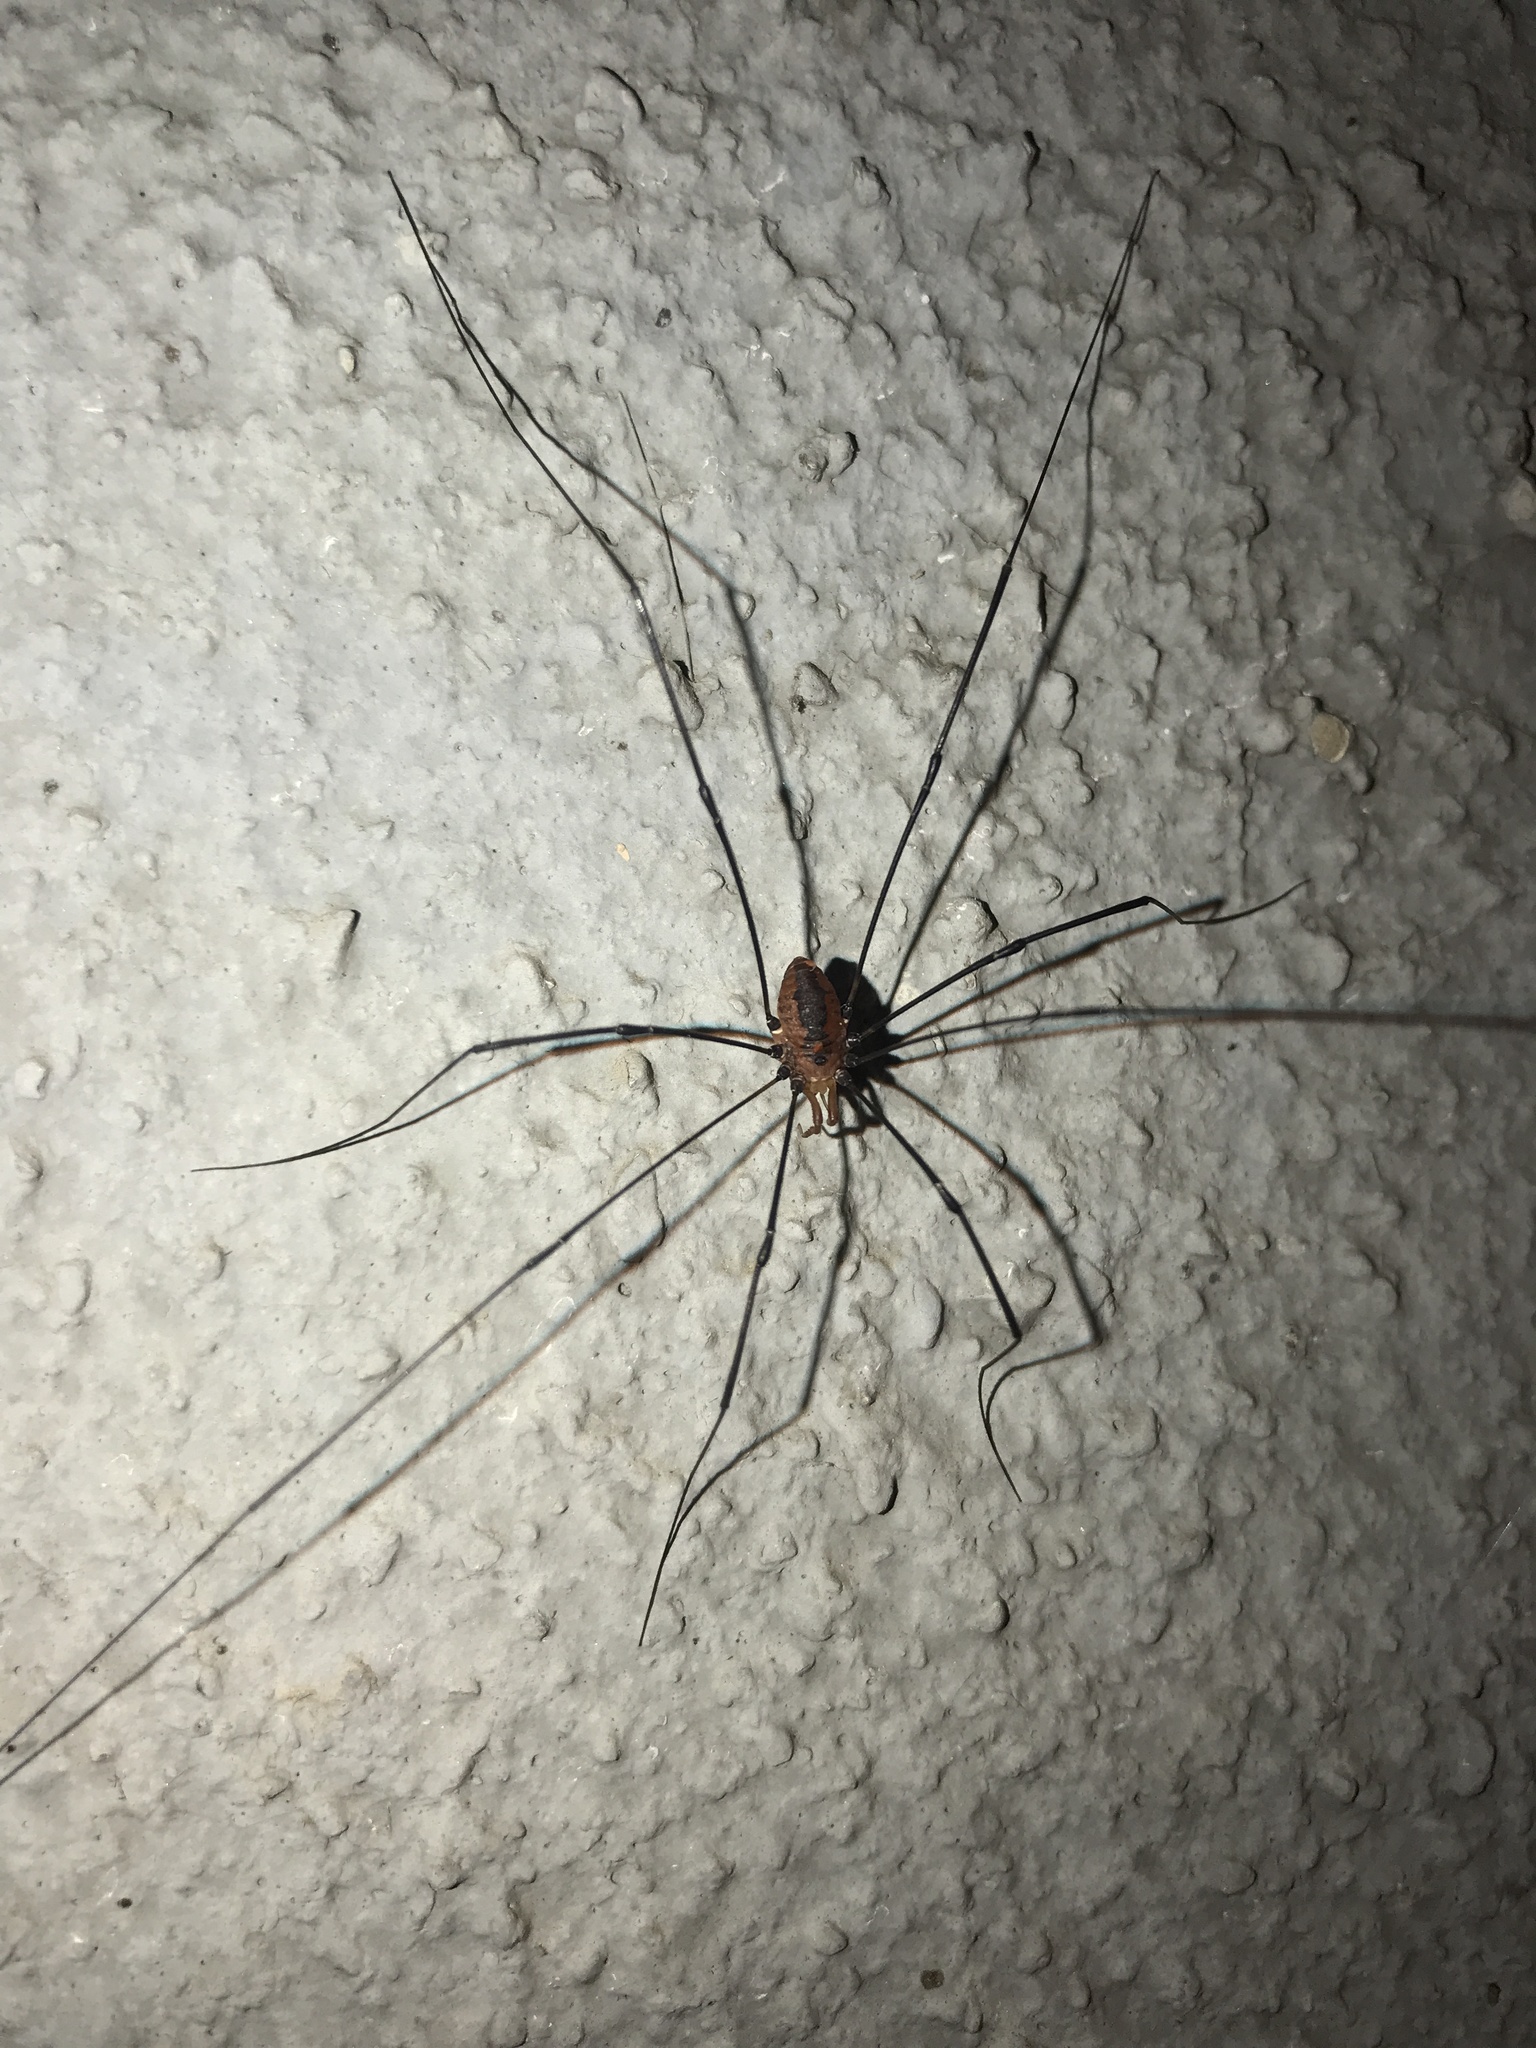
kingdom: Animalia
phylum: Arthropoda
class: Arachnida
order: Opiliones
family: Sclerosomatidae
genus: Leiobunum
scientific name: Leiobunum vittatum
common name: Eastern harvestman
